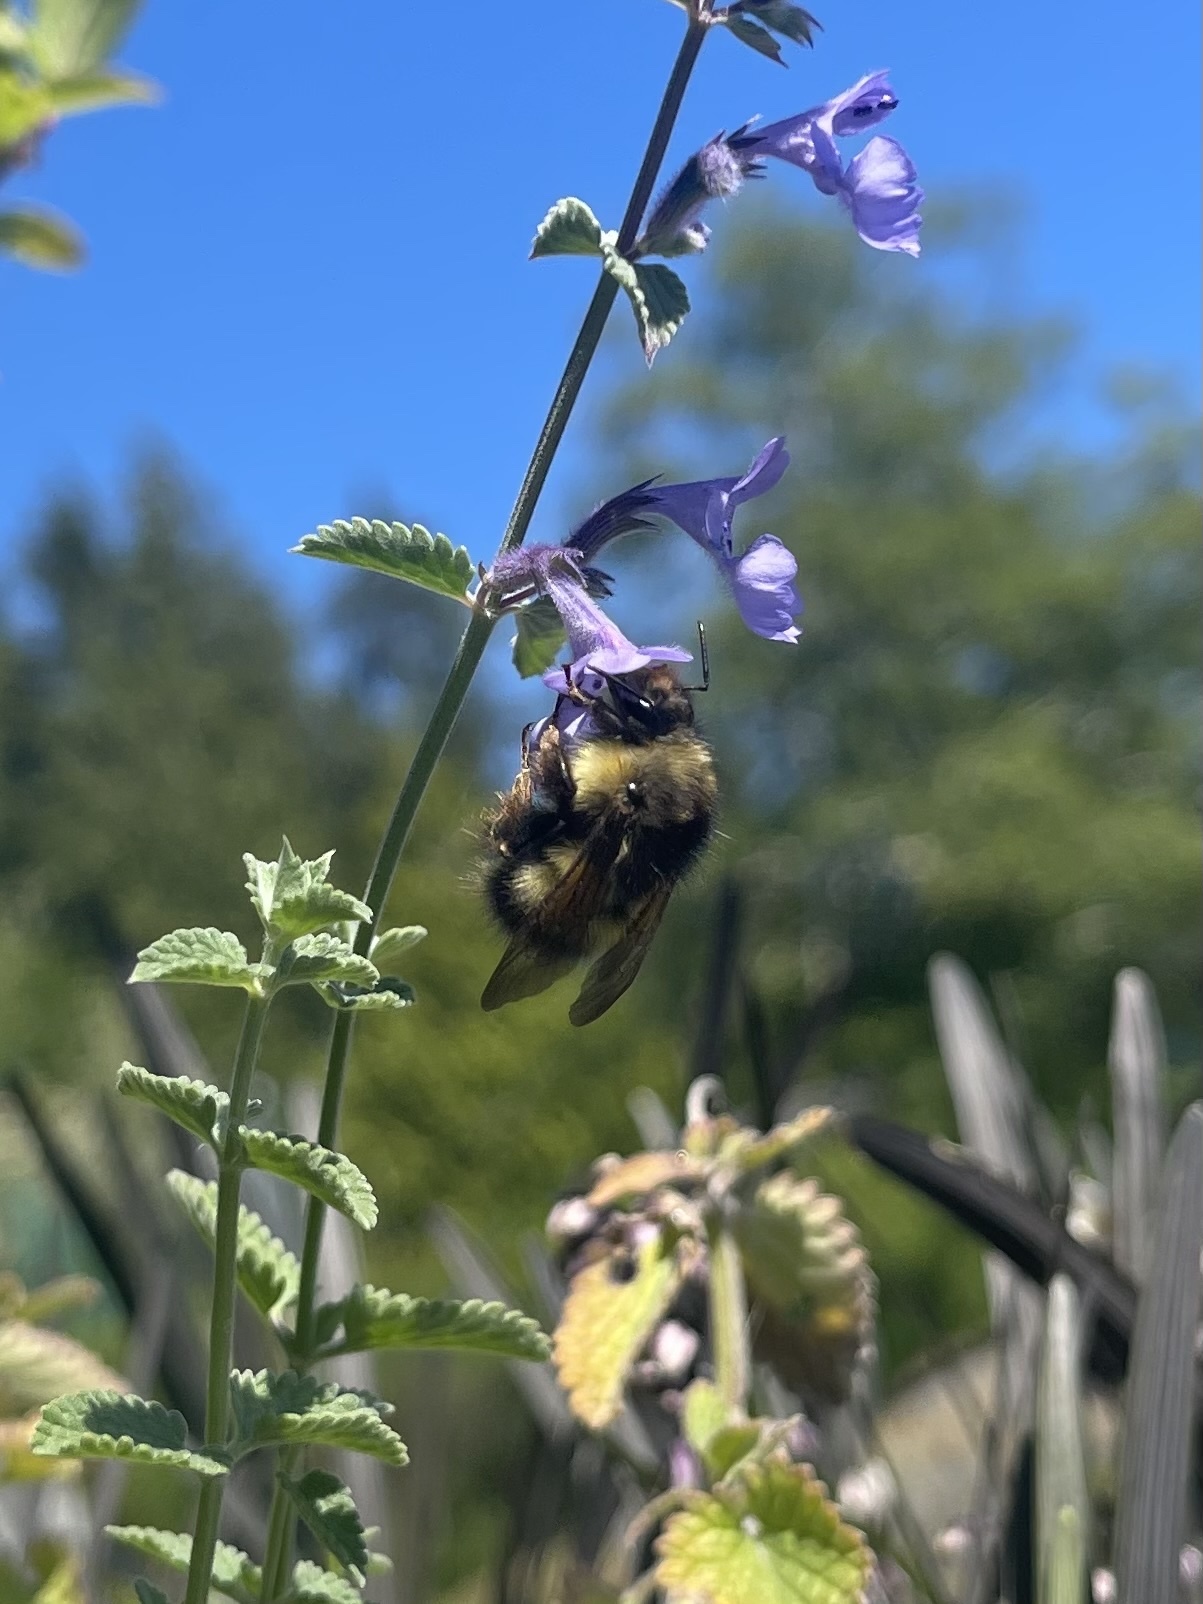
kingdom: Animalia
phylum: Arthropoda
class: Insecta
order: Hymenoptera
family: Apidae
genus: Bombus
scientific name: Bombus sitkensis
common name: Sitka bumble bee
